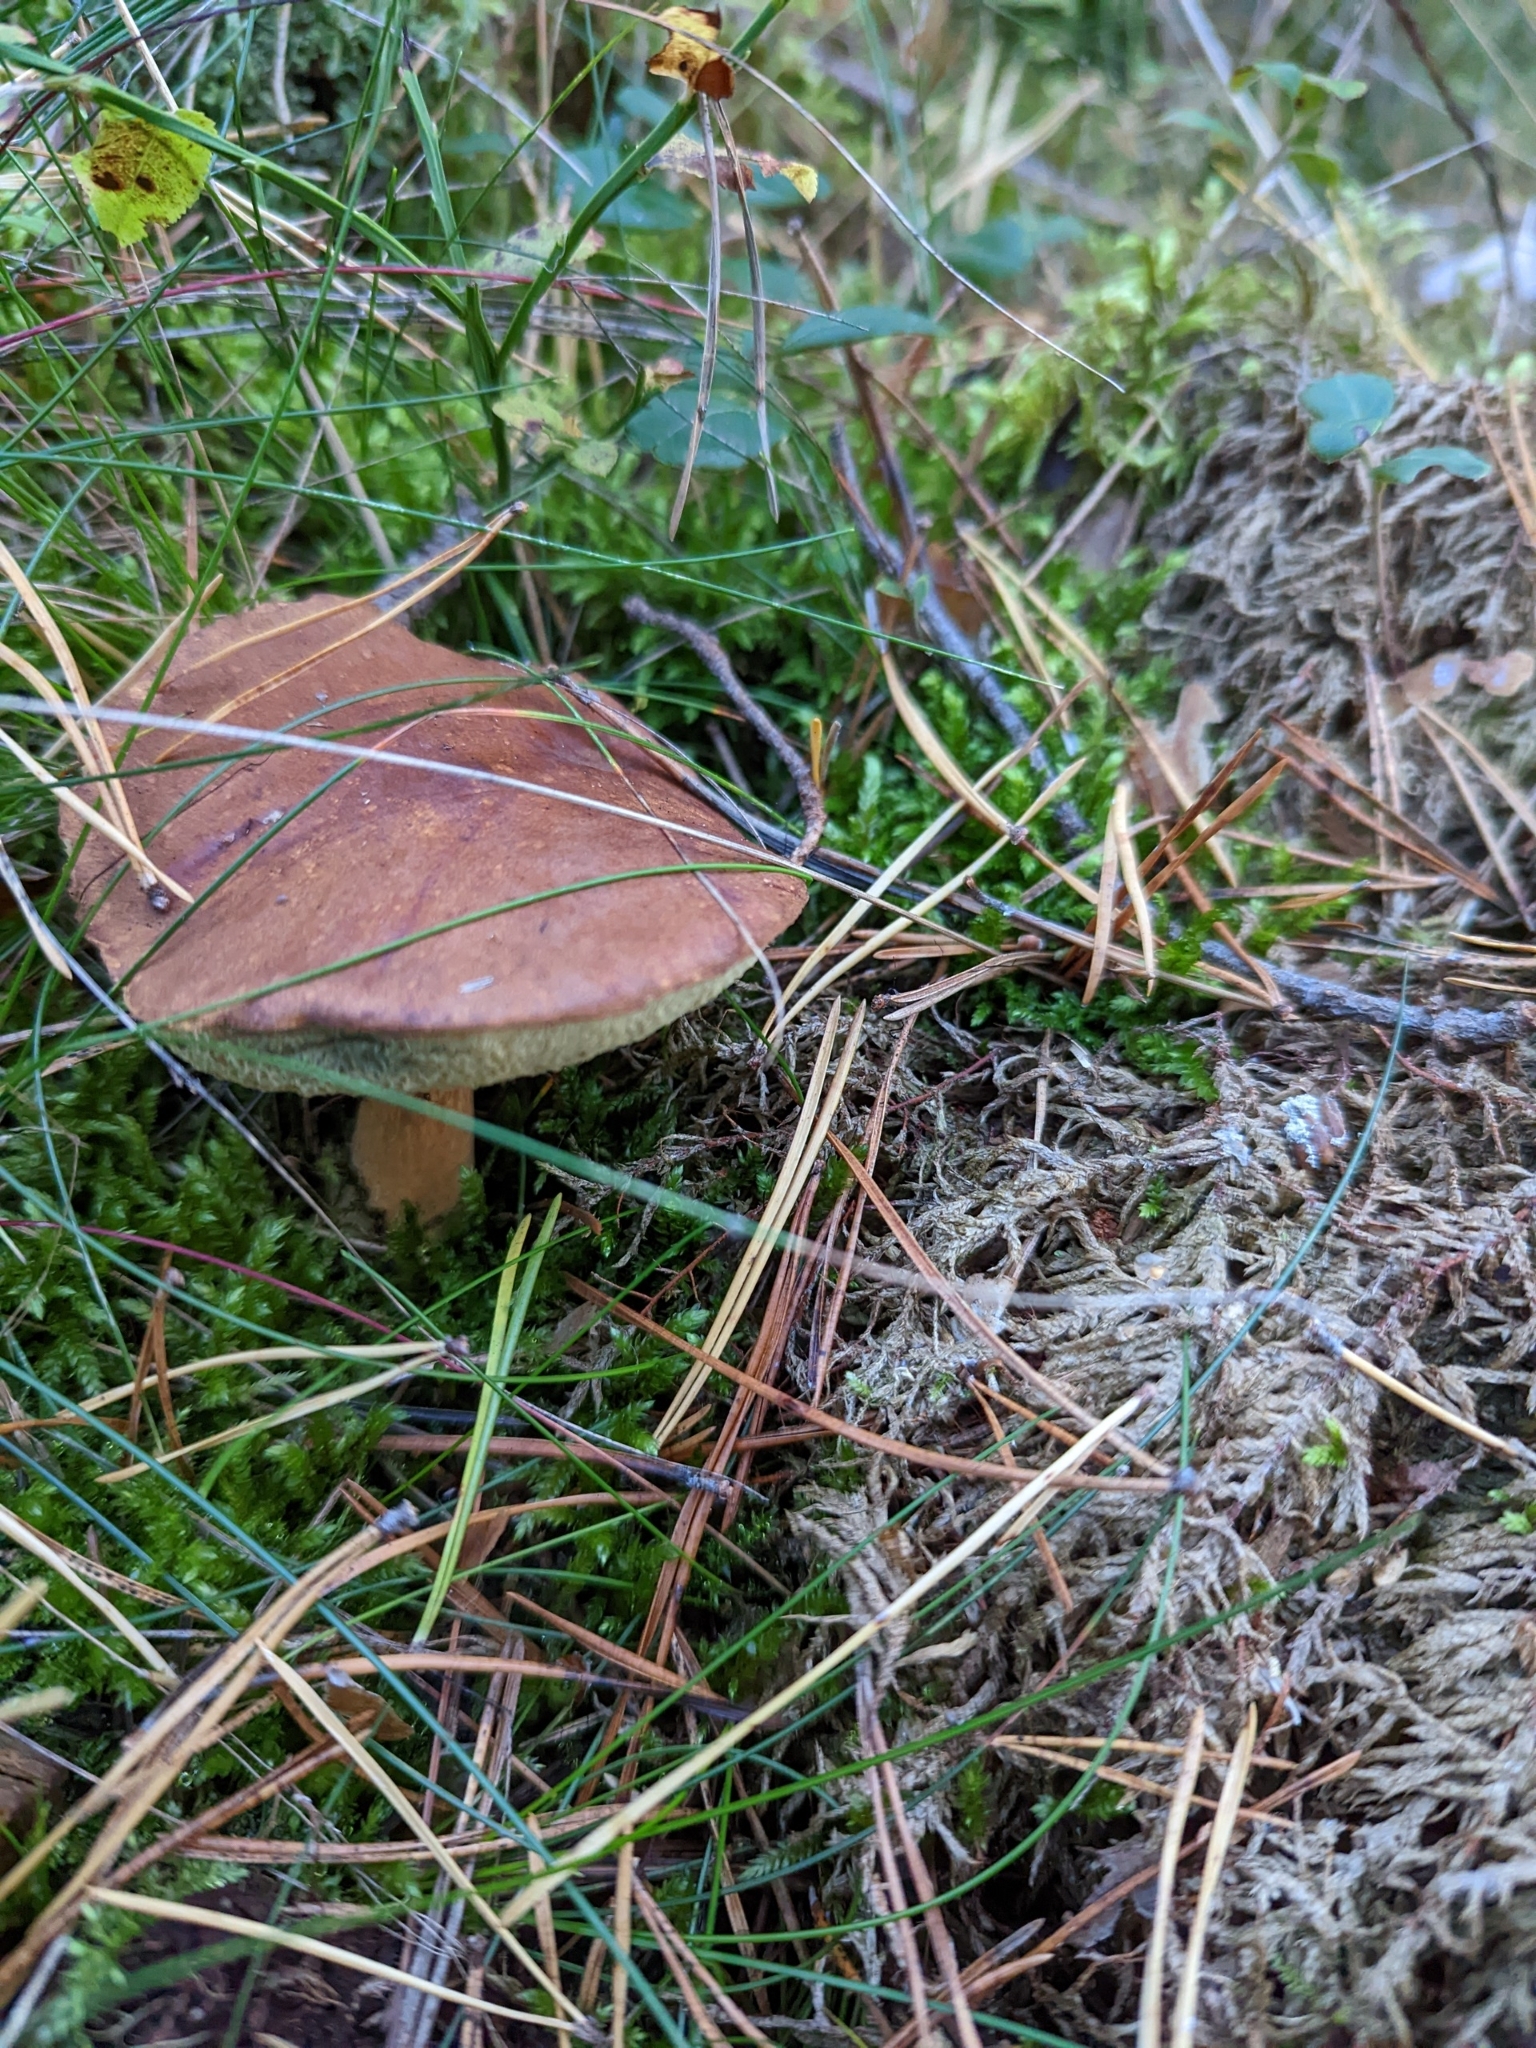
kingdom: Fungi
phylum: Basidiomycota
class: Agaricomycetes
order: Boletales
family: Boletaceae
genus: Imleria
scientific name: Imleria badia
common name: Bay bolete
